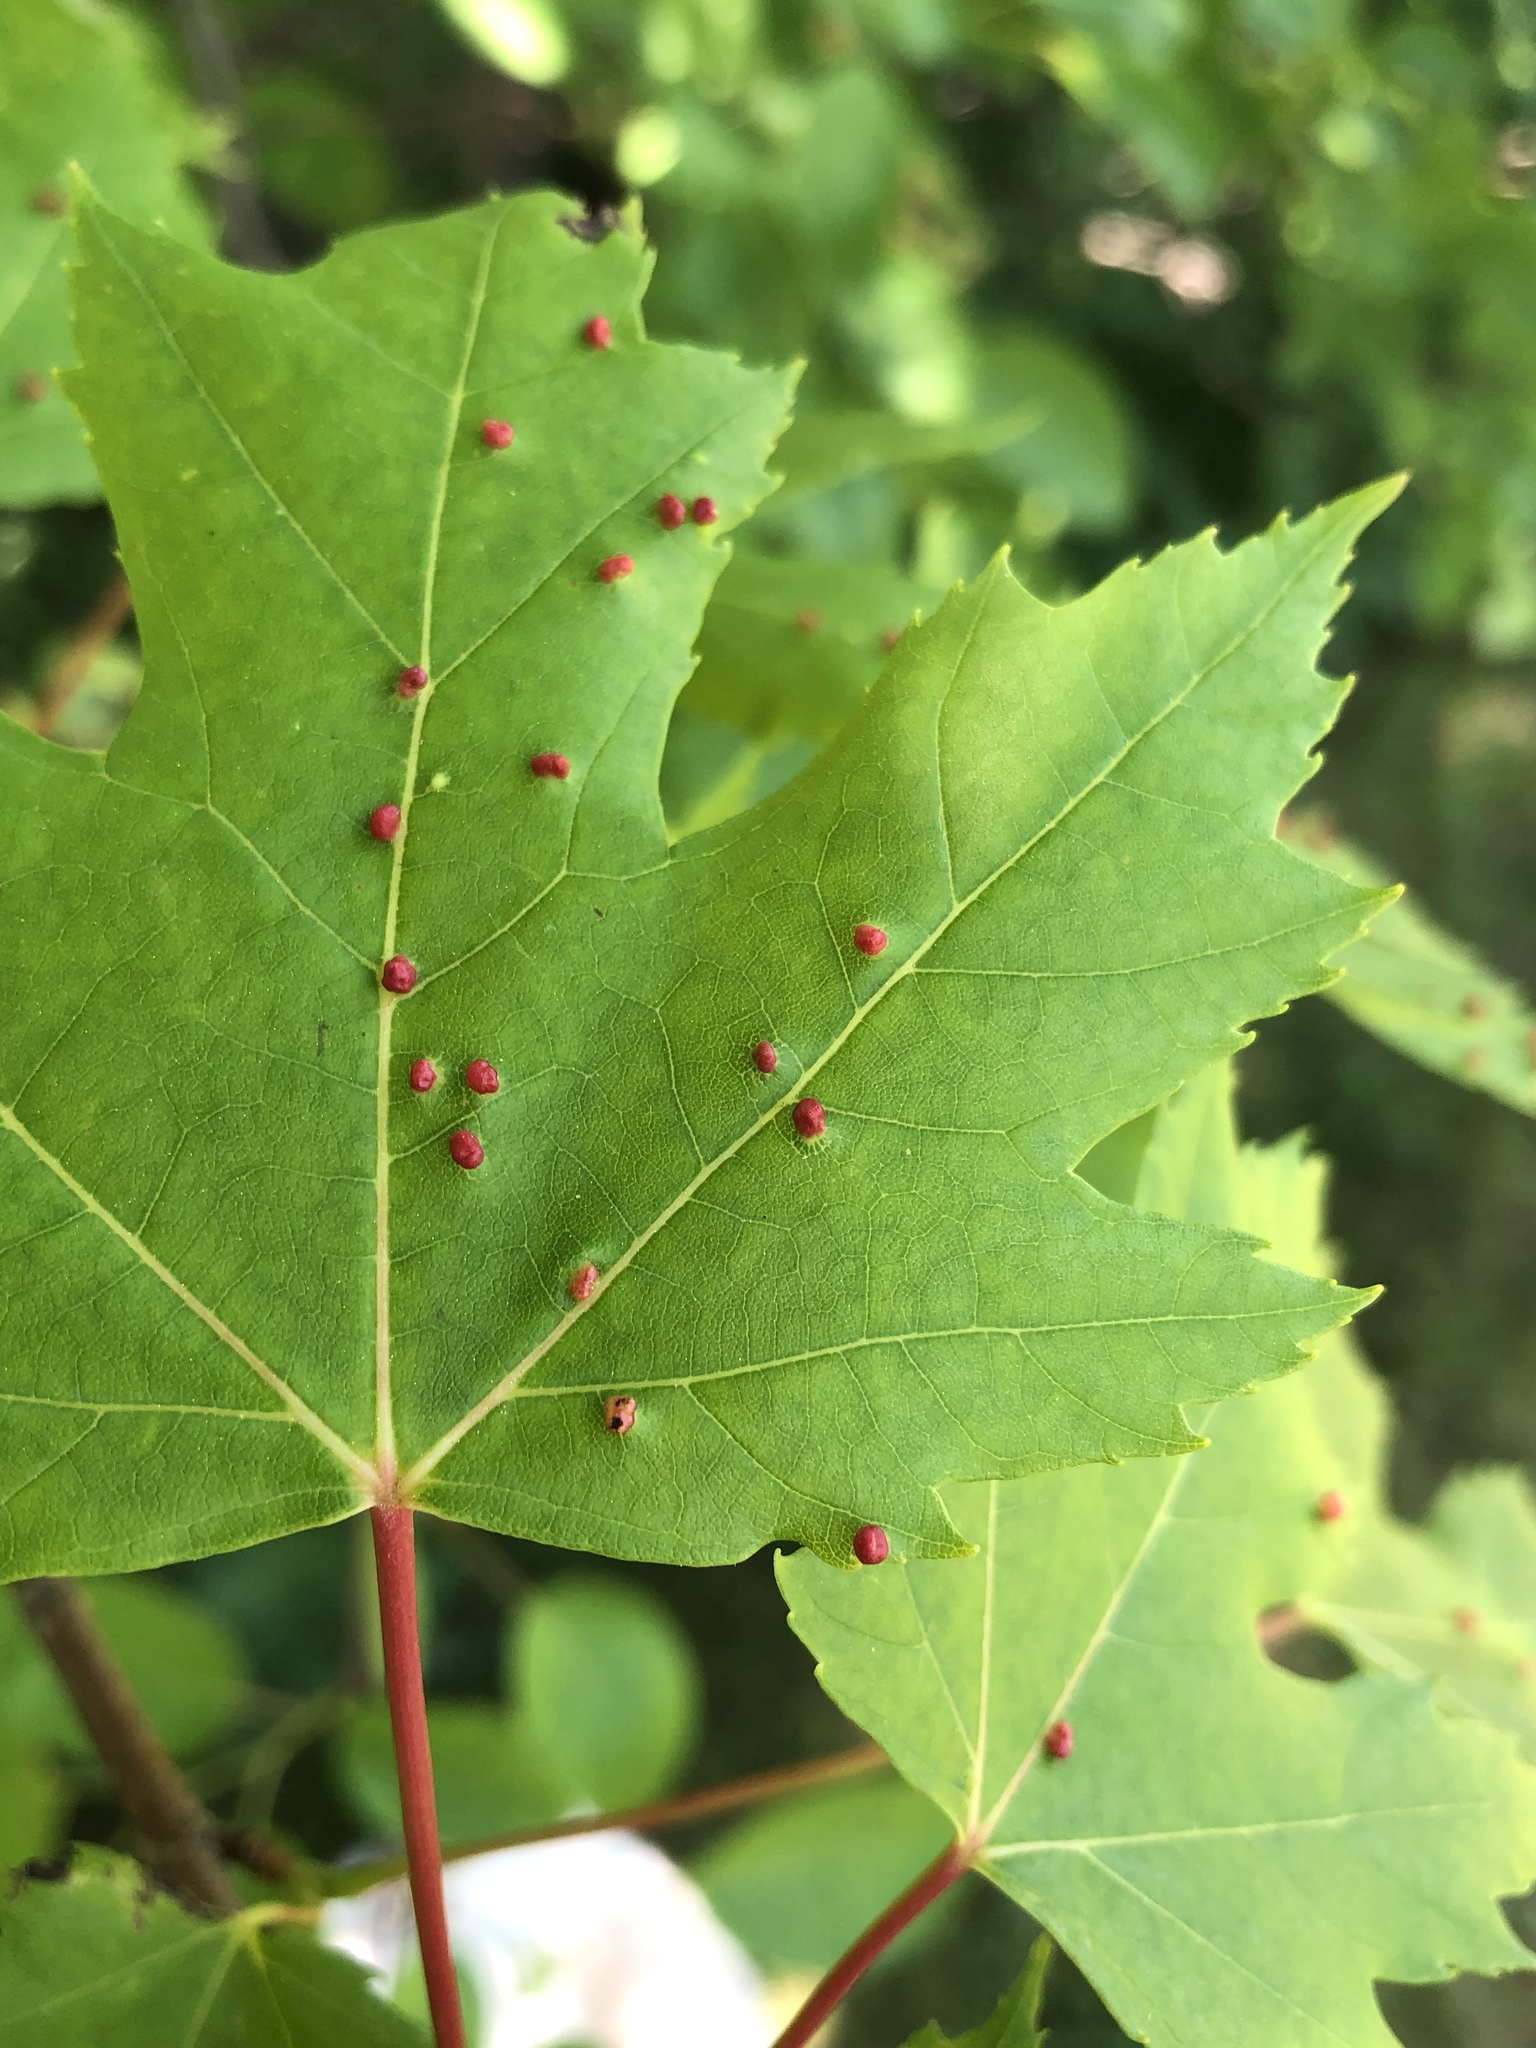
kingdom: Animalia
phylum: Arthropoda
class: Arachnida
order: Trombidiformes
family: Eriophyidae
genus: Vasates
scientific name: Vasates quadripedes
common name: Maple bladder gall mite
